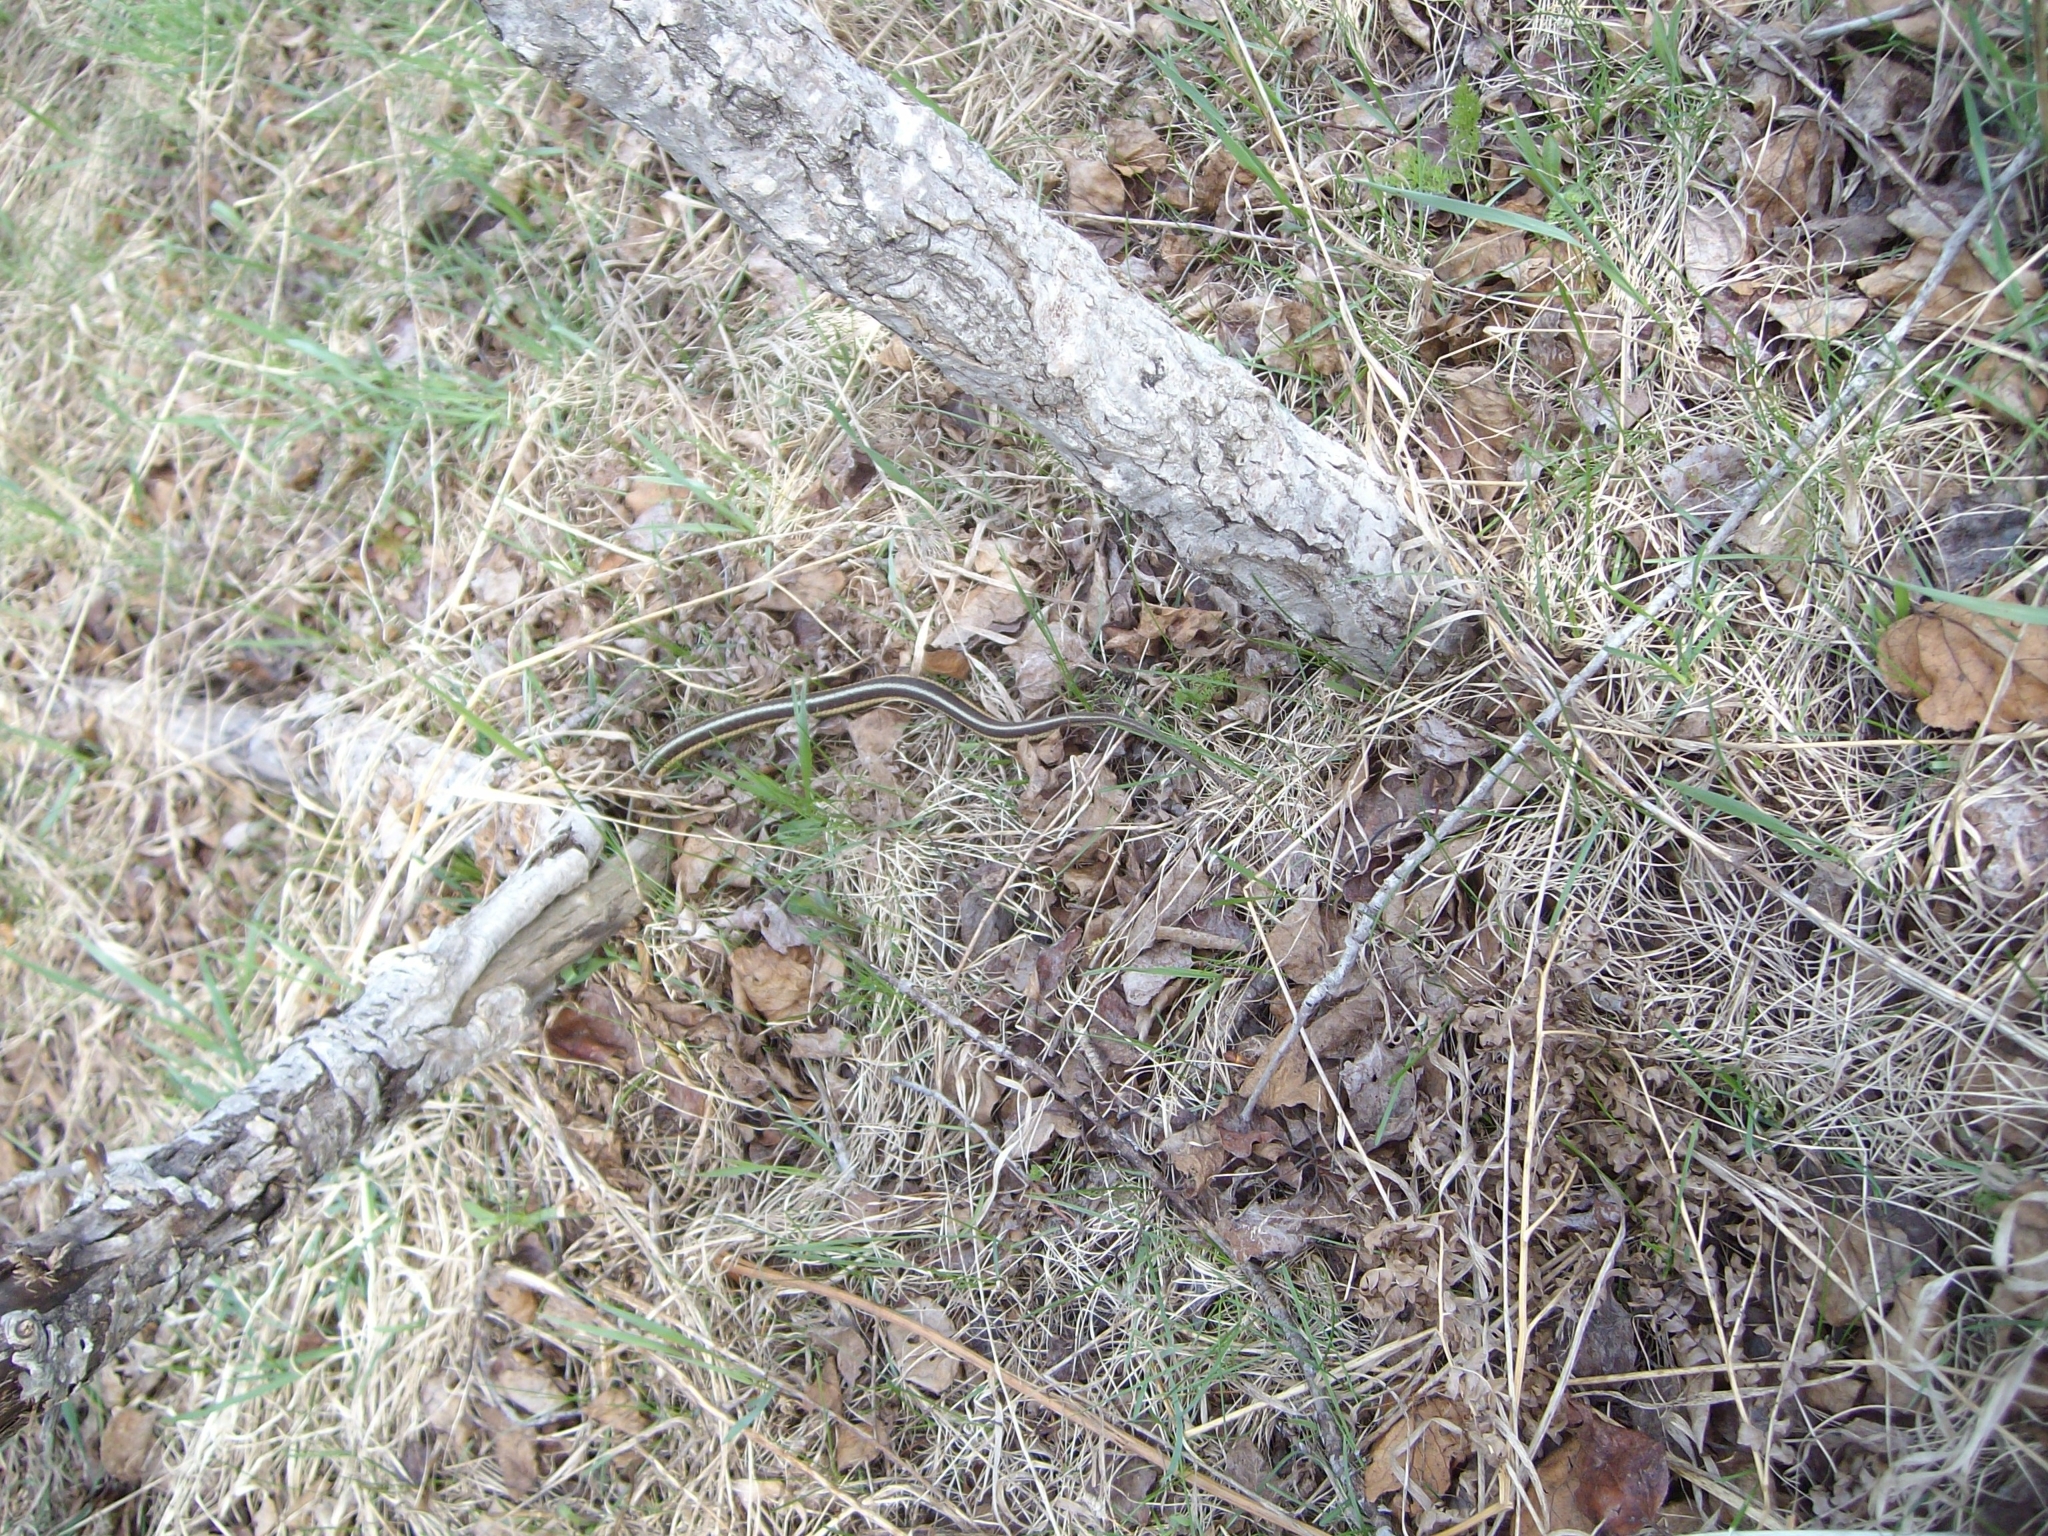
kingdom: Animalia
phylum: Chordata
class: Squamata
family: Colubridae
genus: Thamnophis
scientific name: Thamnophis sirtalis
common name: Common garter snake
